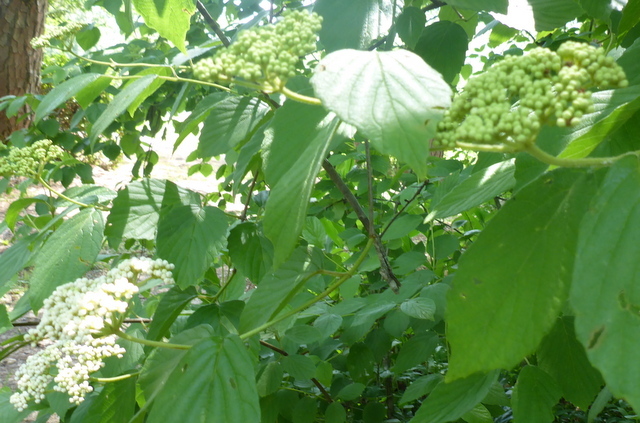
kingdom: Plantae
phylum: Tracheophyta
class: Magnoliopsida
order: Dipsacales
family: Viburnaceae
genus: Viburnum
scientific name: Viburnum scabrellum
